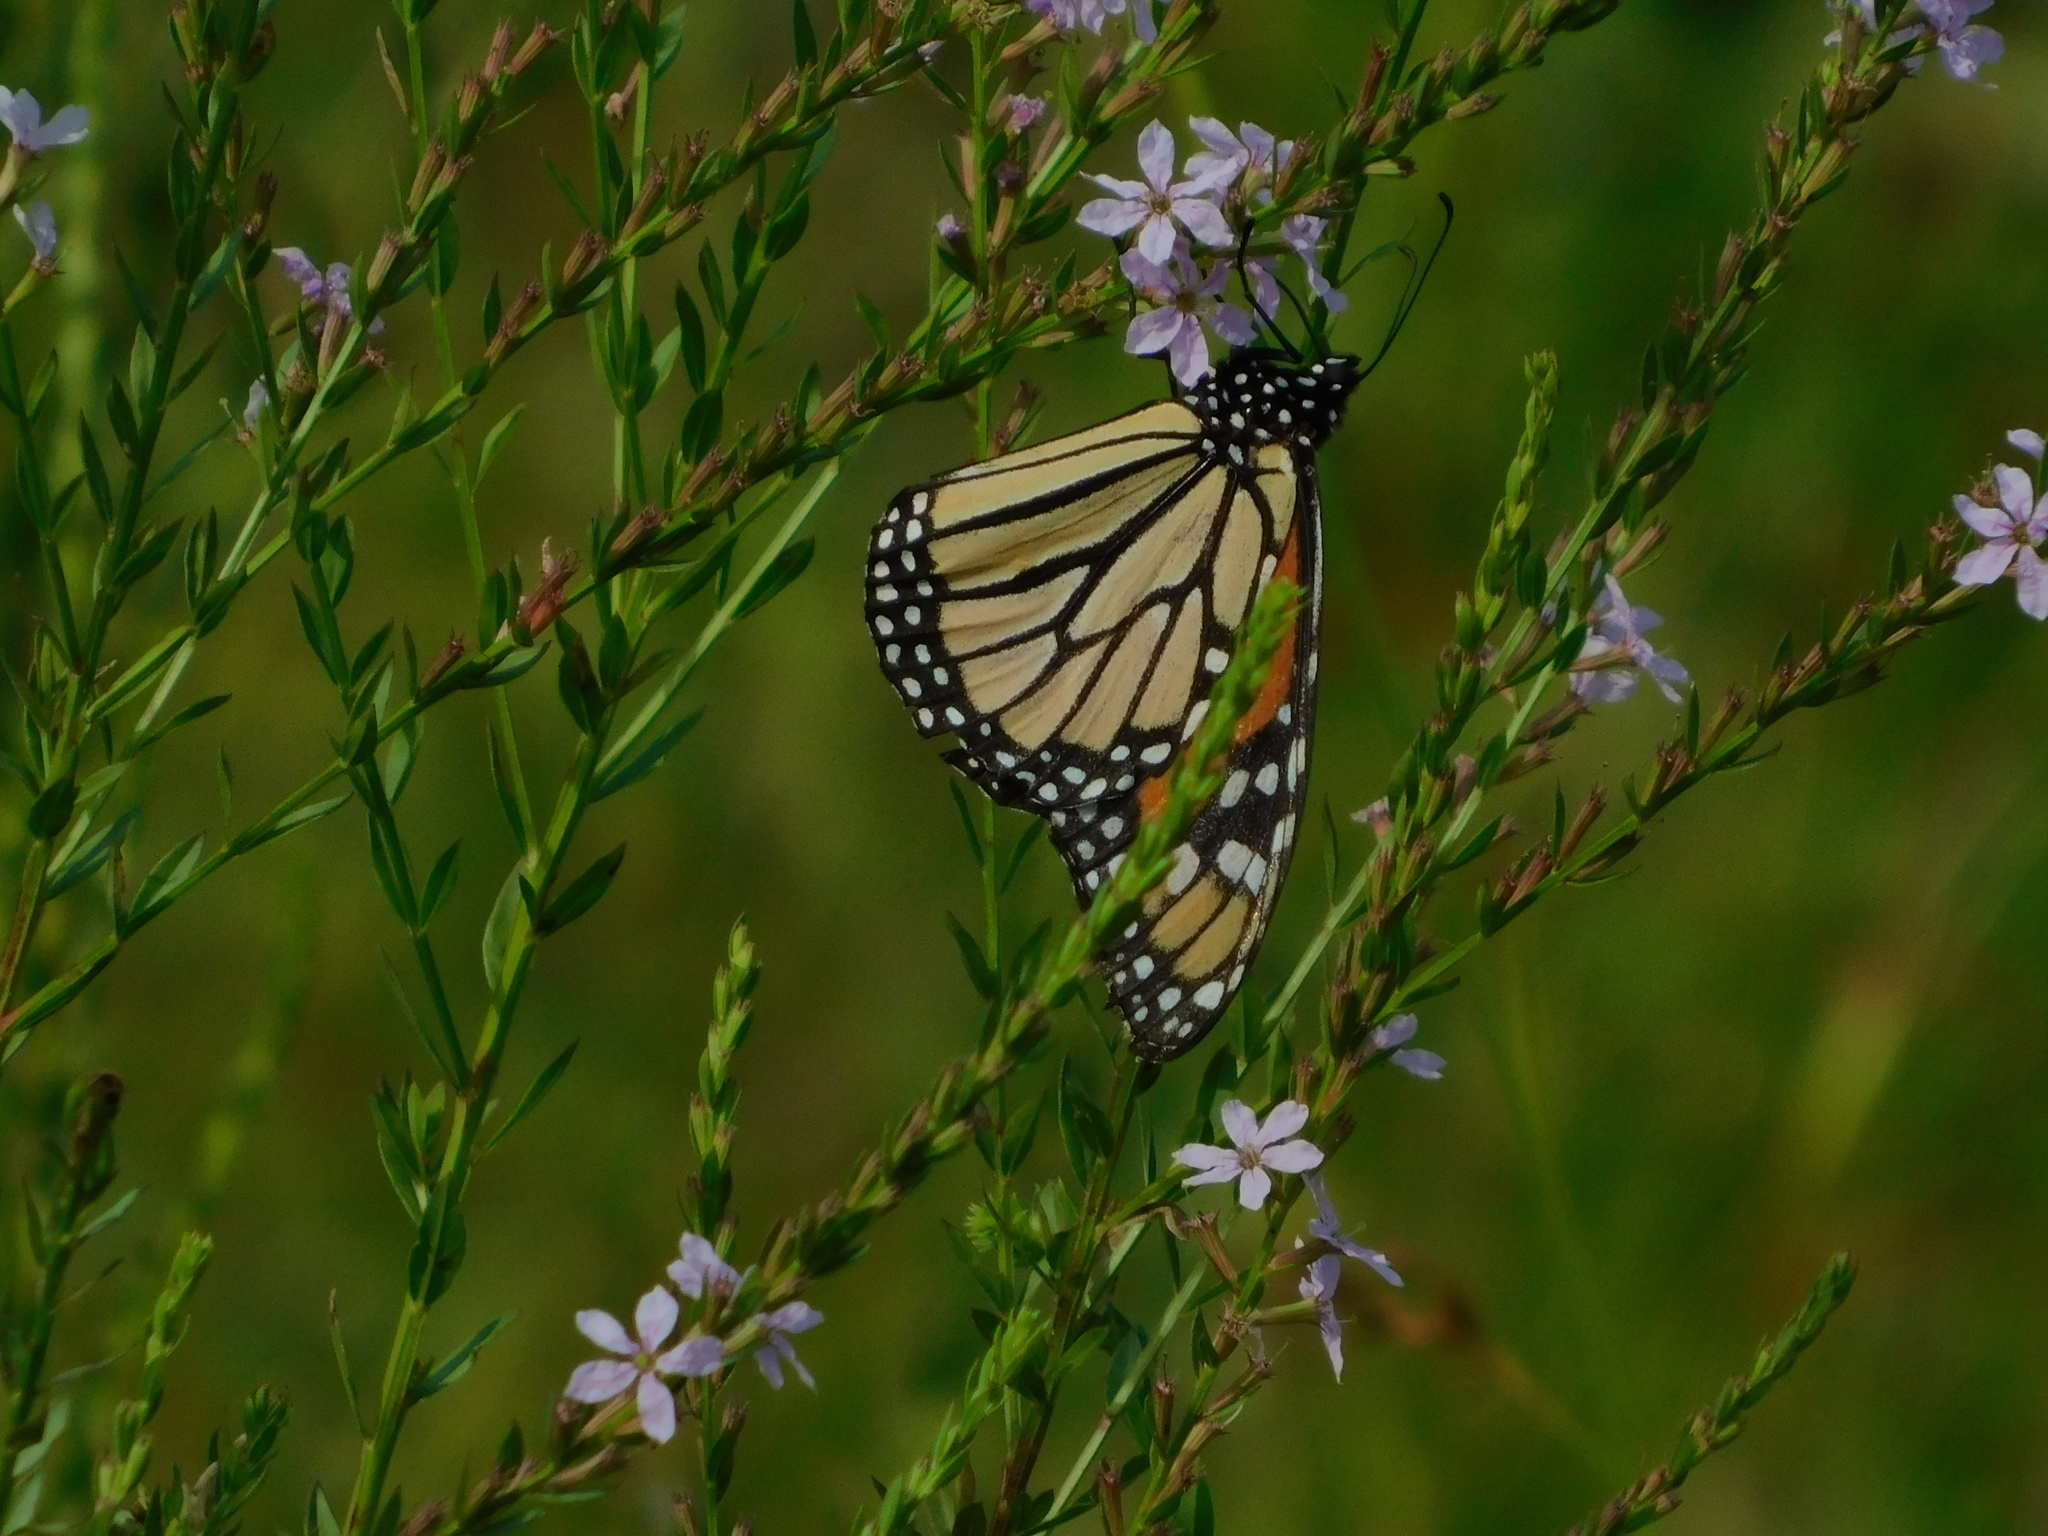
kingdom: Animalia
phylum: Arthropoda
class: Insecta
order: Lepidoptera
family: Nymphalidae
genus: Danaus
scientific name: Danaus plexippus
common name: Monarch
